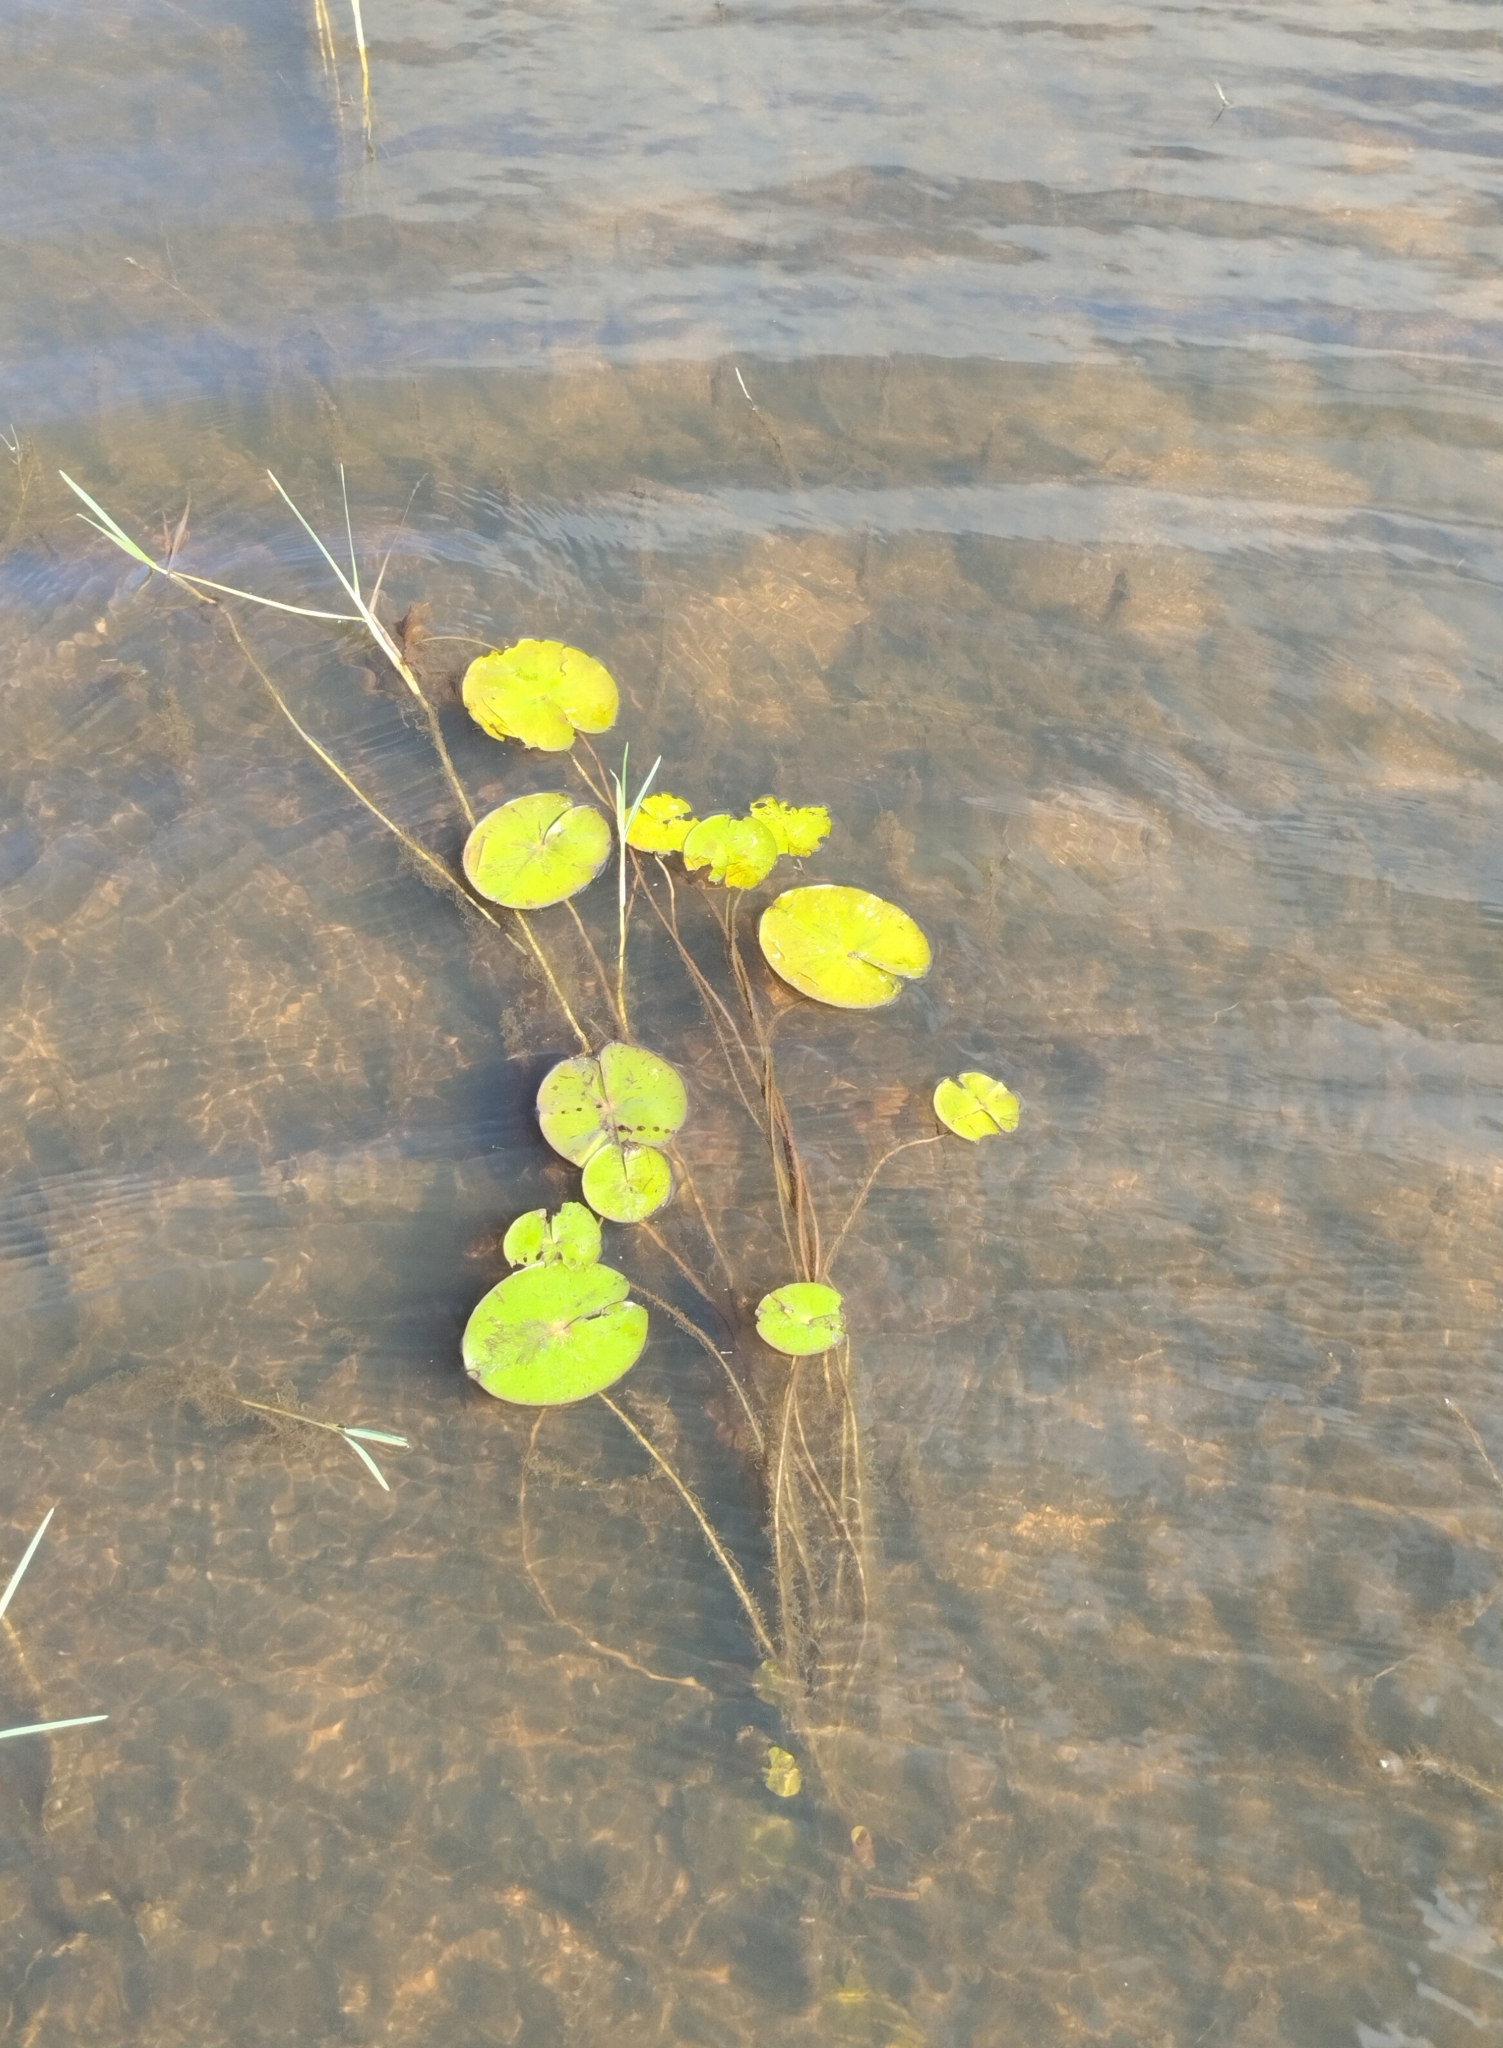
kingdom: Plantae
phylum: Tracheophyta
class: Magnoliopsida
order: Asterales
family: Menyanthaceae
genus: Nymphoides
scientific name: Nymphoides humboldtiana
